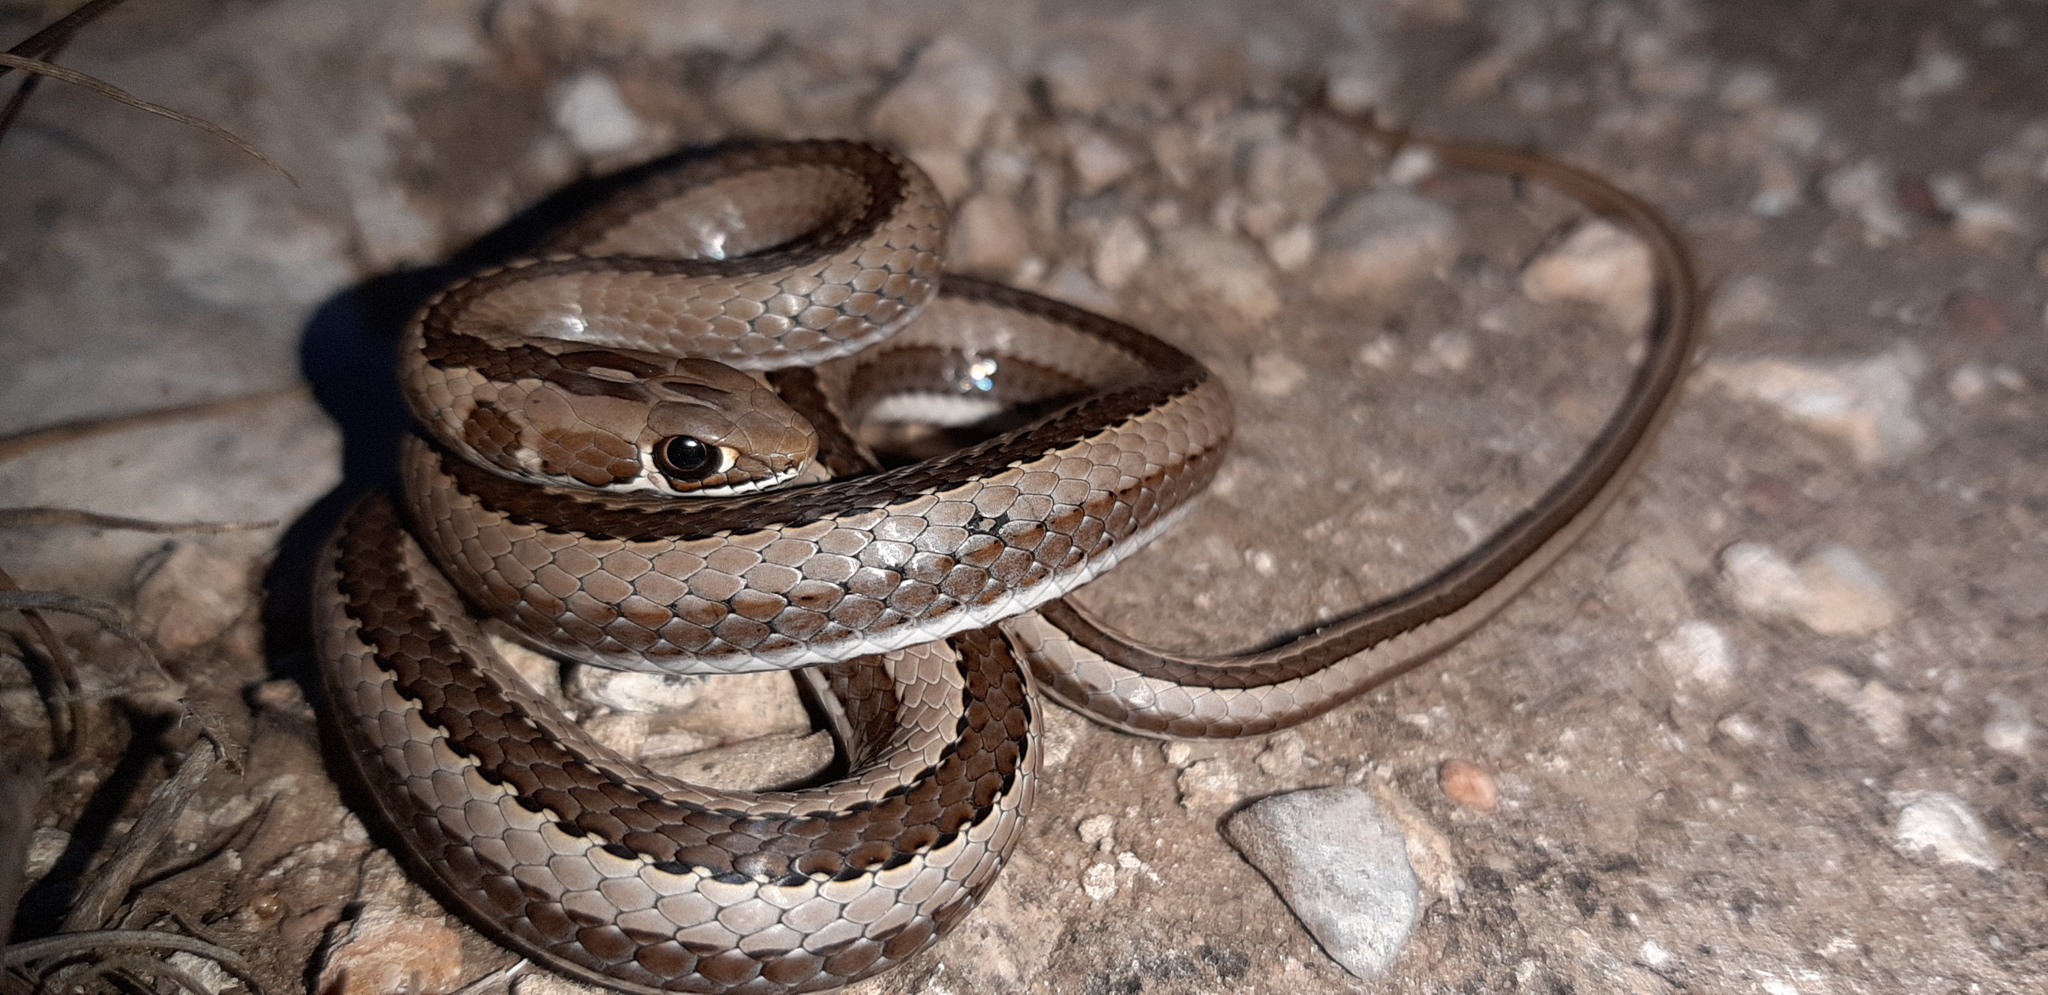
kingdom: Animalia
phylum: Chordata
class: Squamata
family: Psammophiidae
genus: Psammophis
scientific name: Psammophis crucifer
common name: Cross-marked grass snake
